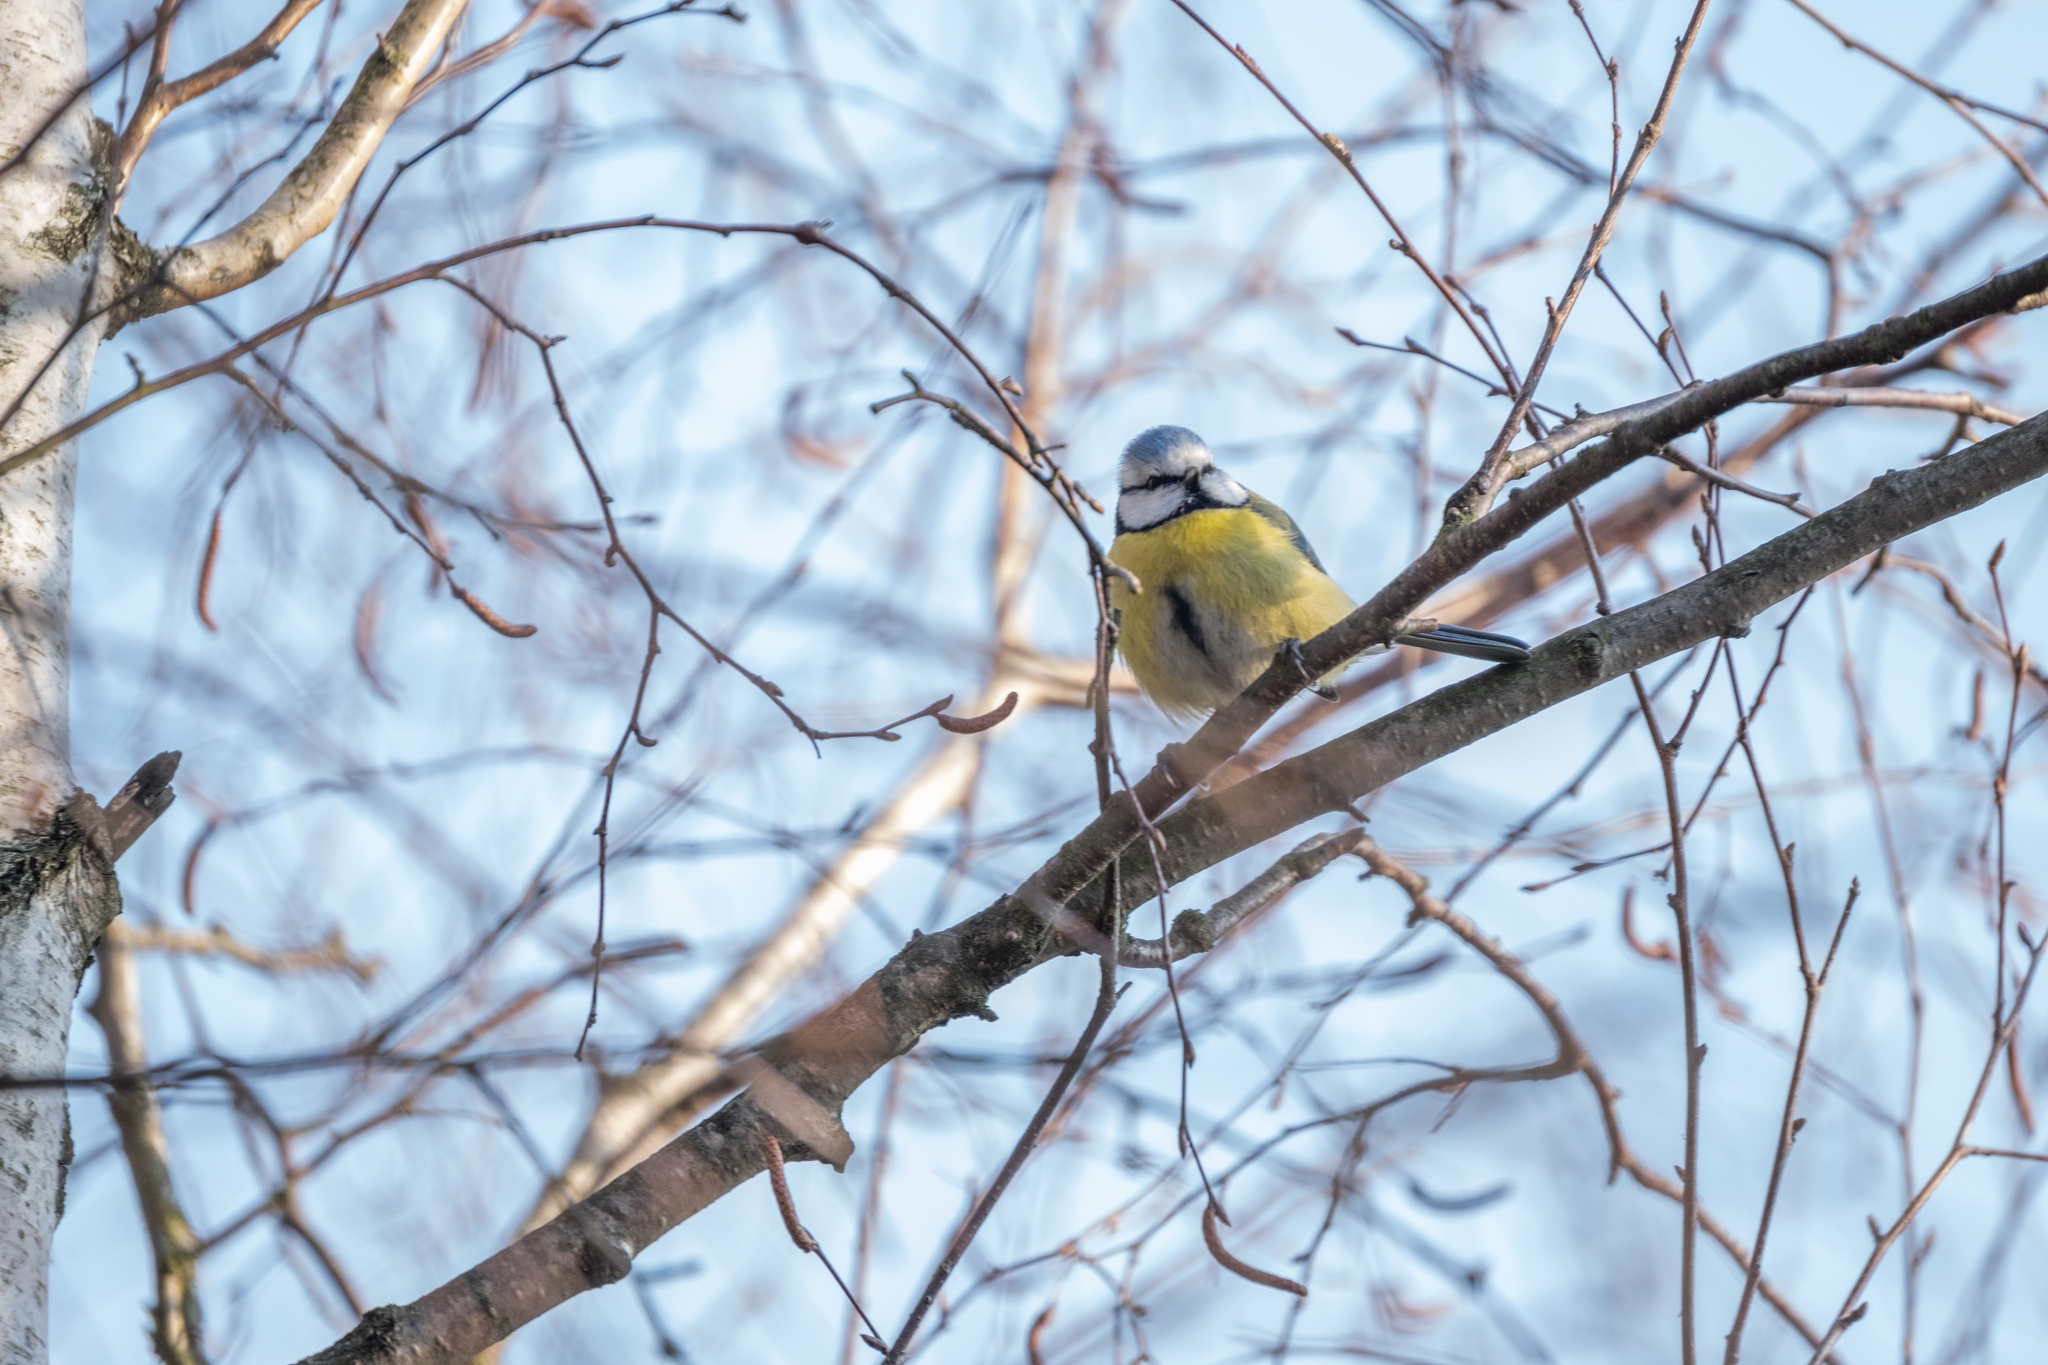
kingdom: Animalia
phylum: Chordata
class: Aves
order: Passeriformes
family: Paridae
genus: Cyanistes
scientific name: Cyanistes caeruleus
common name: Eurasian blue tit
